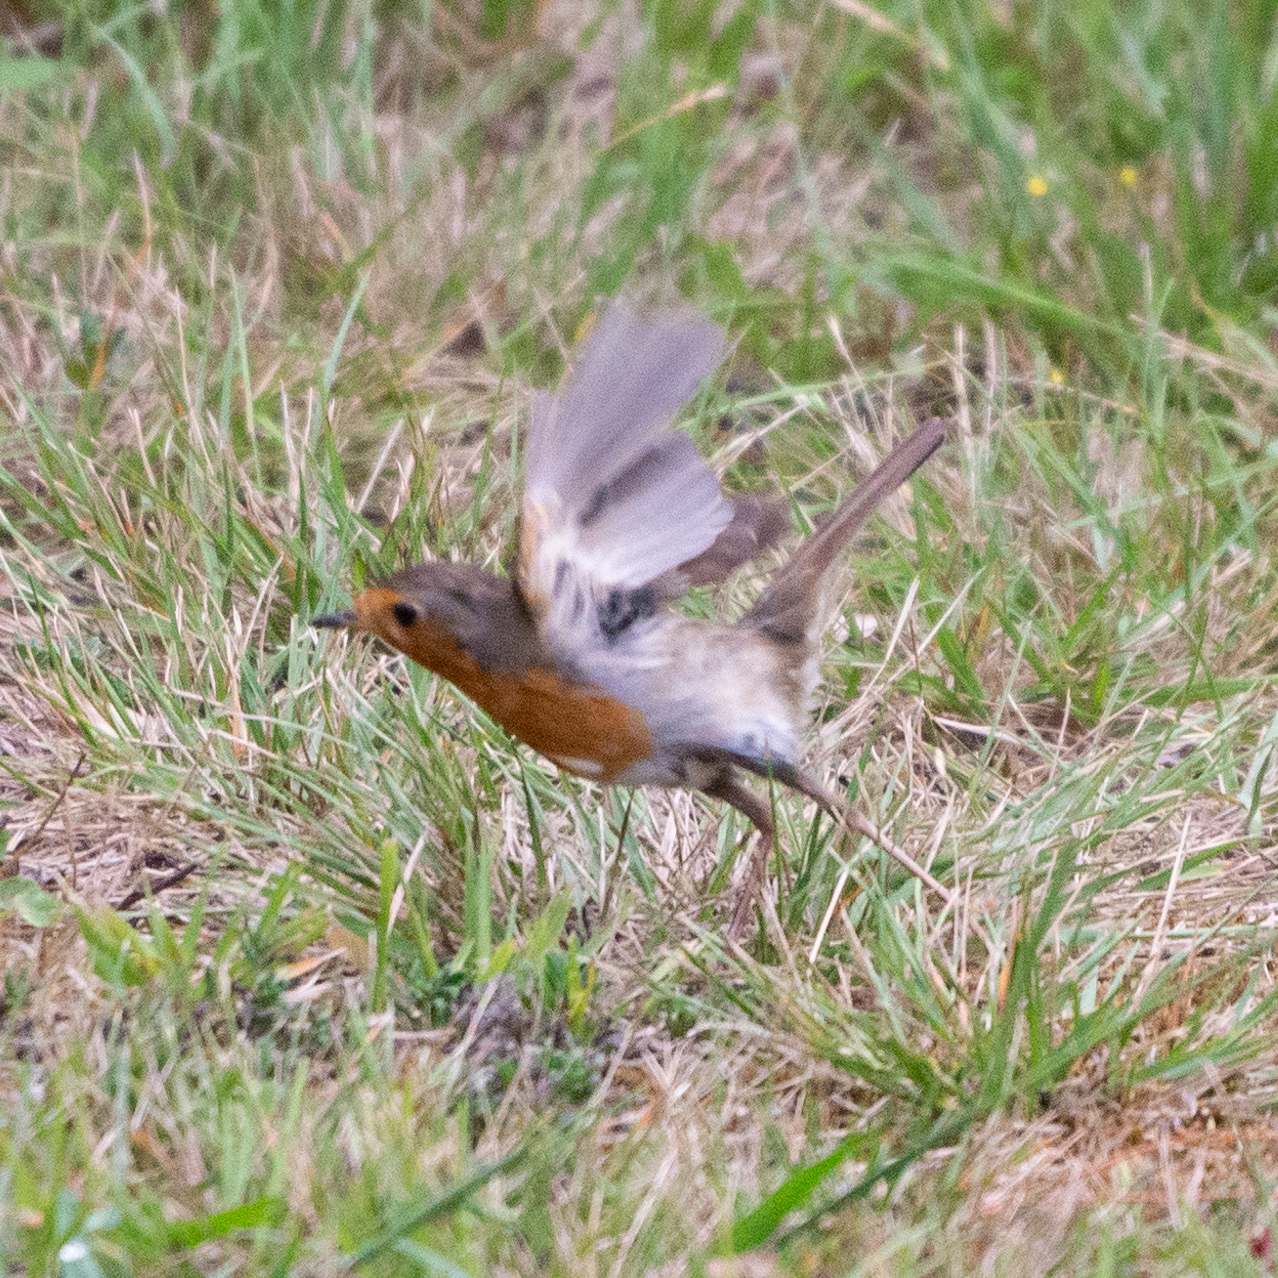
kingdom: Animalia
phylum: Chordata
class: Aves
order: Passeriformes
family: Muscicapidae
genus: Erithacus
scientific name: Erithacus rubecula
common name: European robin
